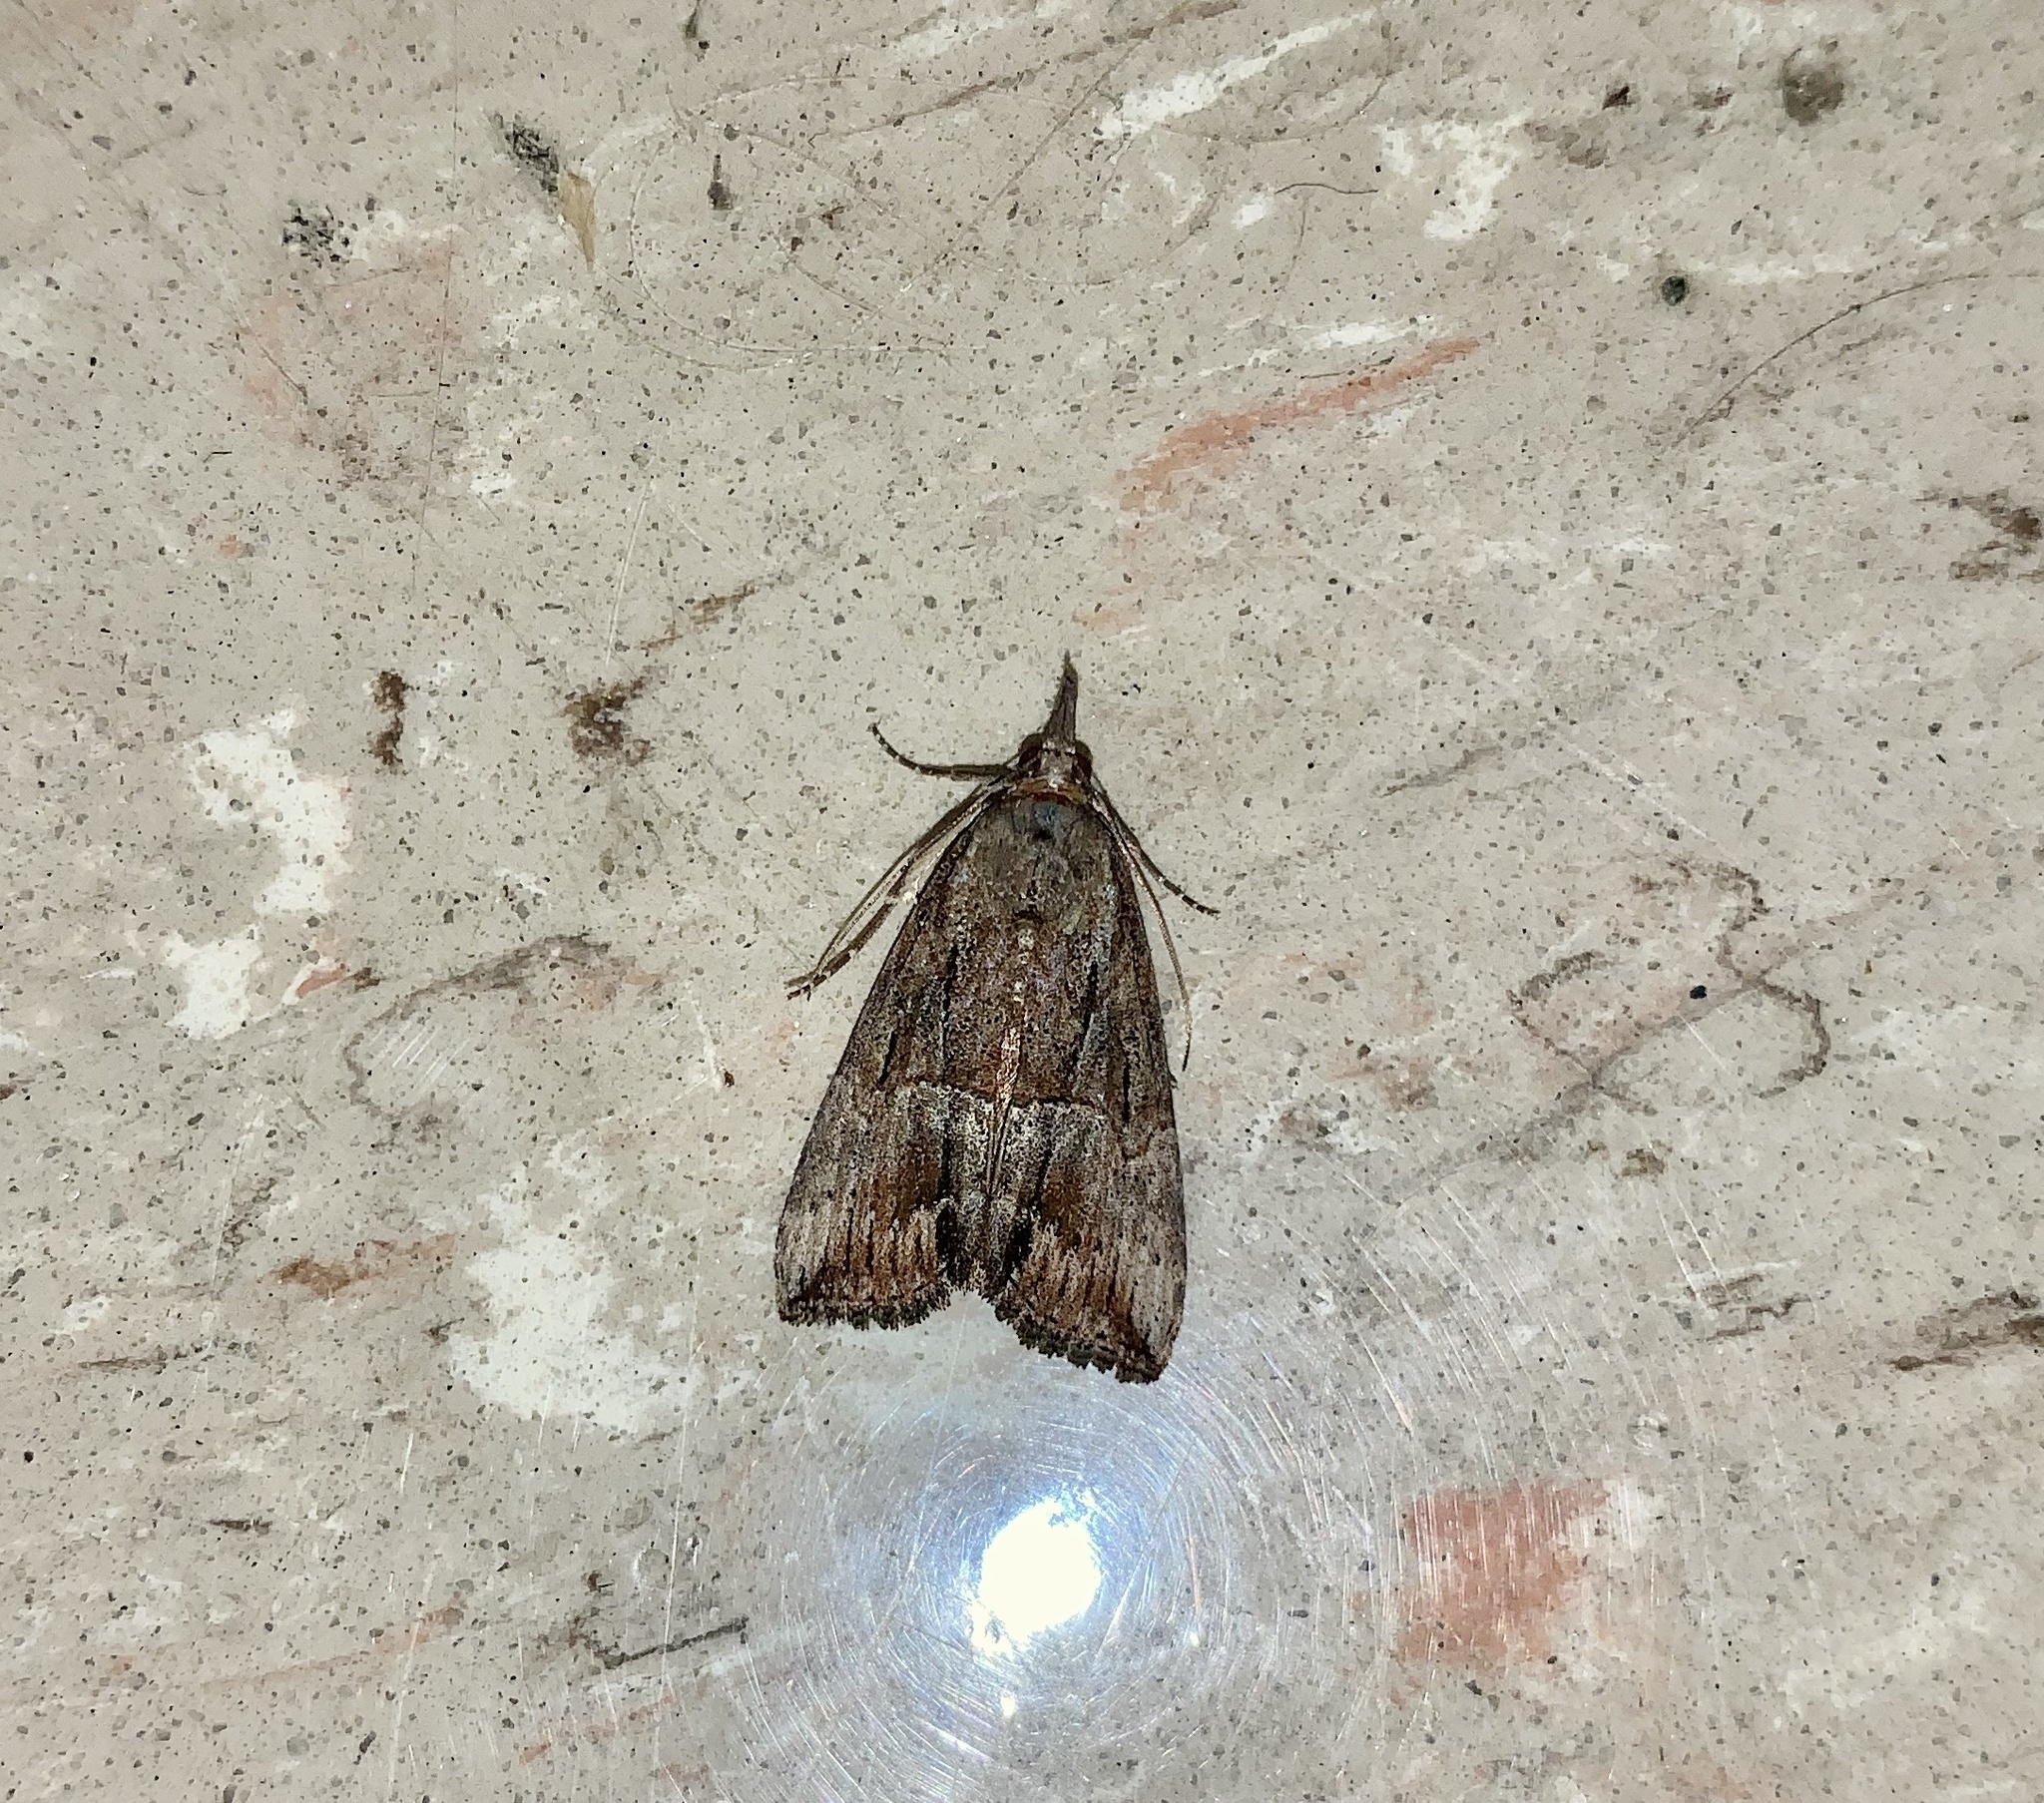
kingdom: Animalia
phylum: Arthropoda
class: Insecta
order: Lepidoptera
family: Erebidae
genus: Hypena
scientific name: Hypena scabra
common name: Green cloverworm
